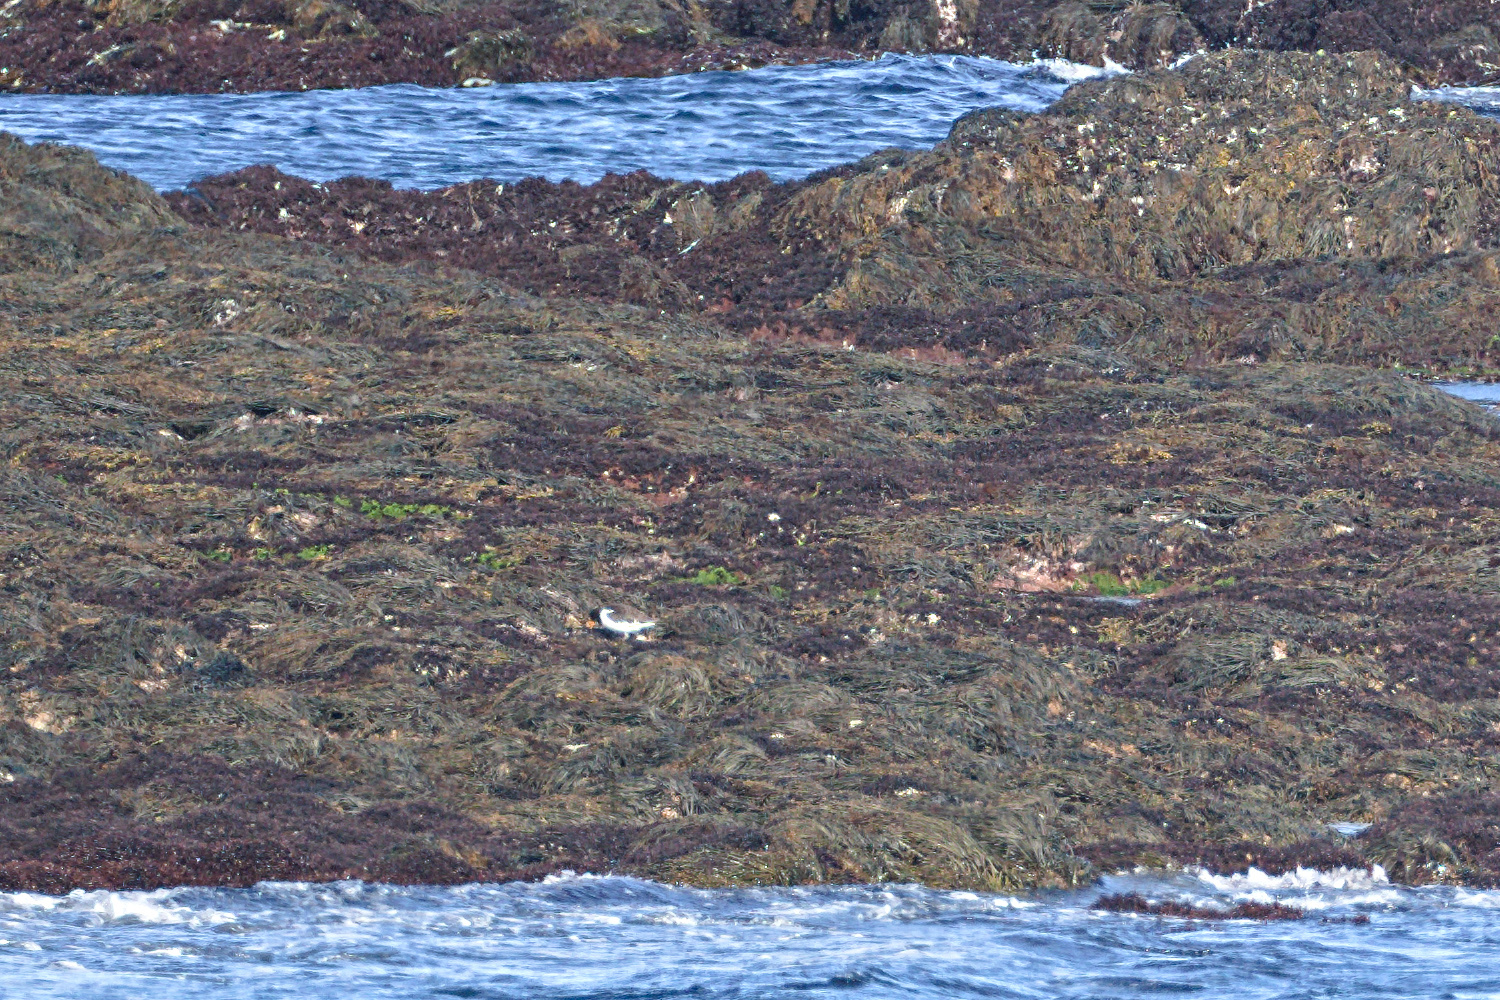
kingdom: Animalia
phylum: Chordata
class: Aves
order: Charadriiformes
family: Haematopodidae
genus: Haematopus
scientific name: Haematopus ostralegus
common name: Eurasian oystercatcher
